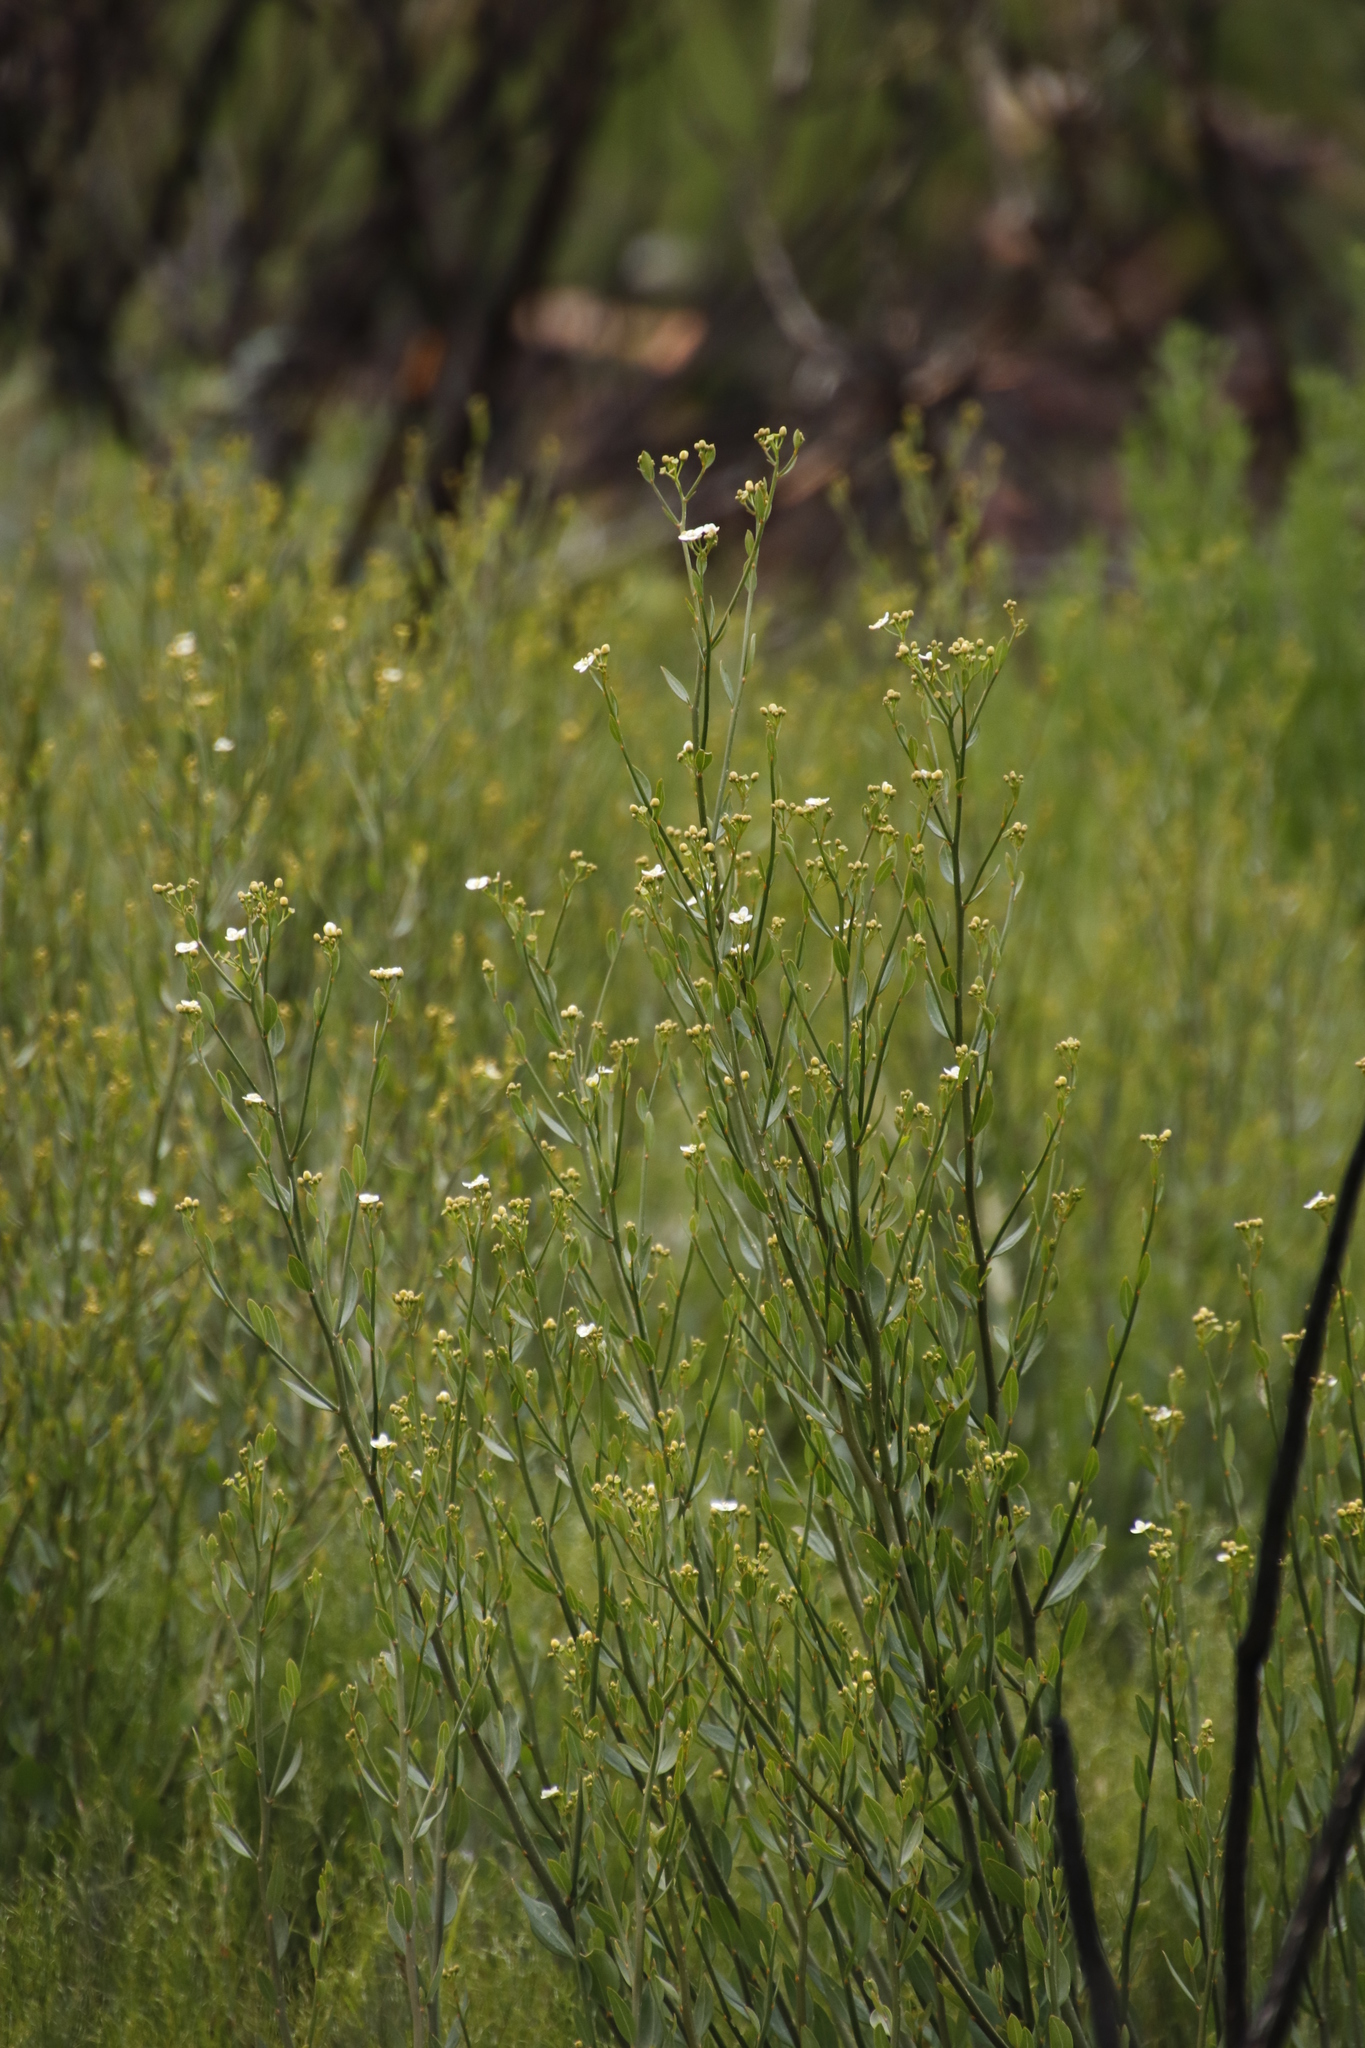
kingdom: Plantae
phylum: Tracheophyta
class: Magnoliopsida
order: Solanales
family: Montiniaceae
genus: Montinia
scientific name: Montinia caryophyllacea
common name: Wild clove-bush
